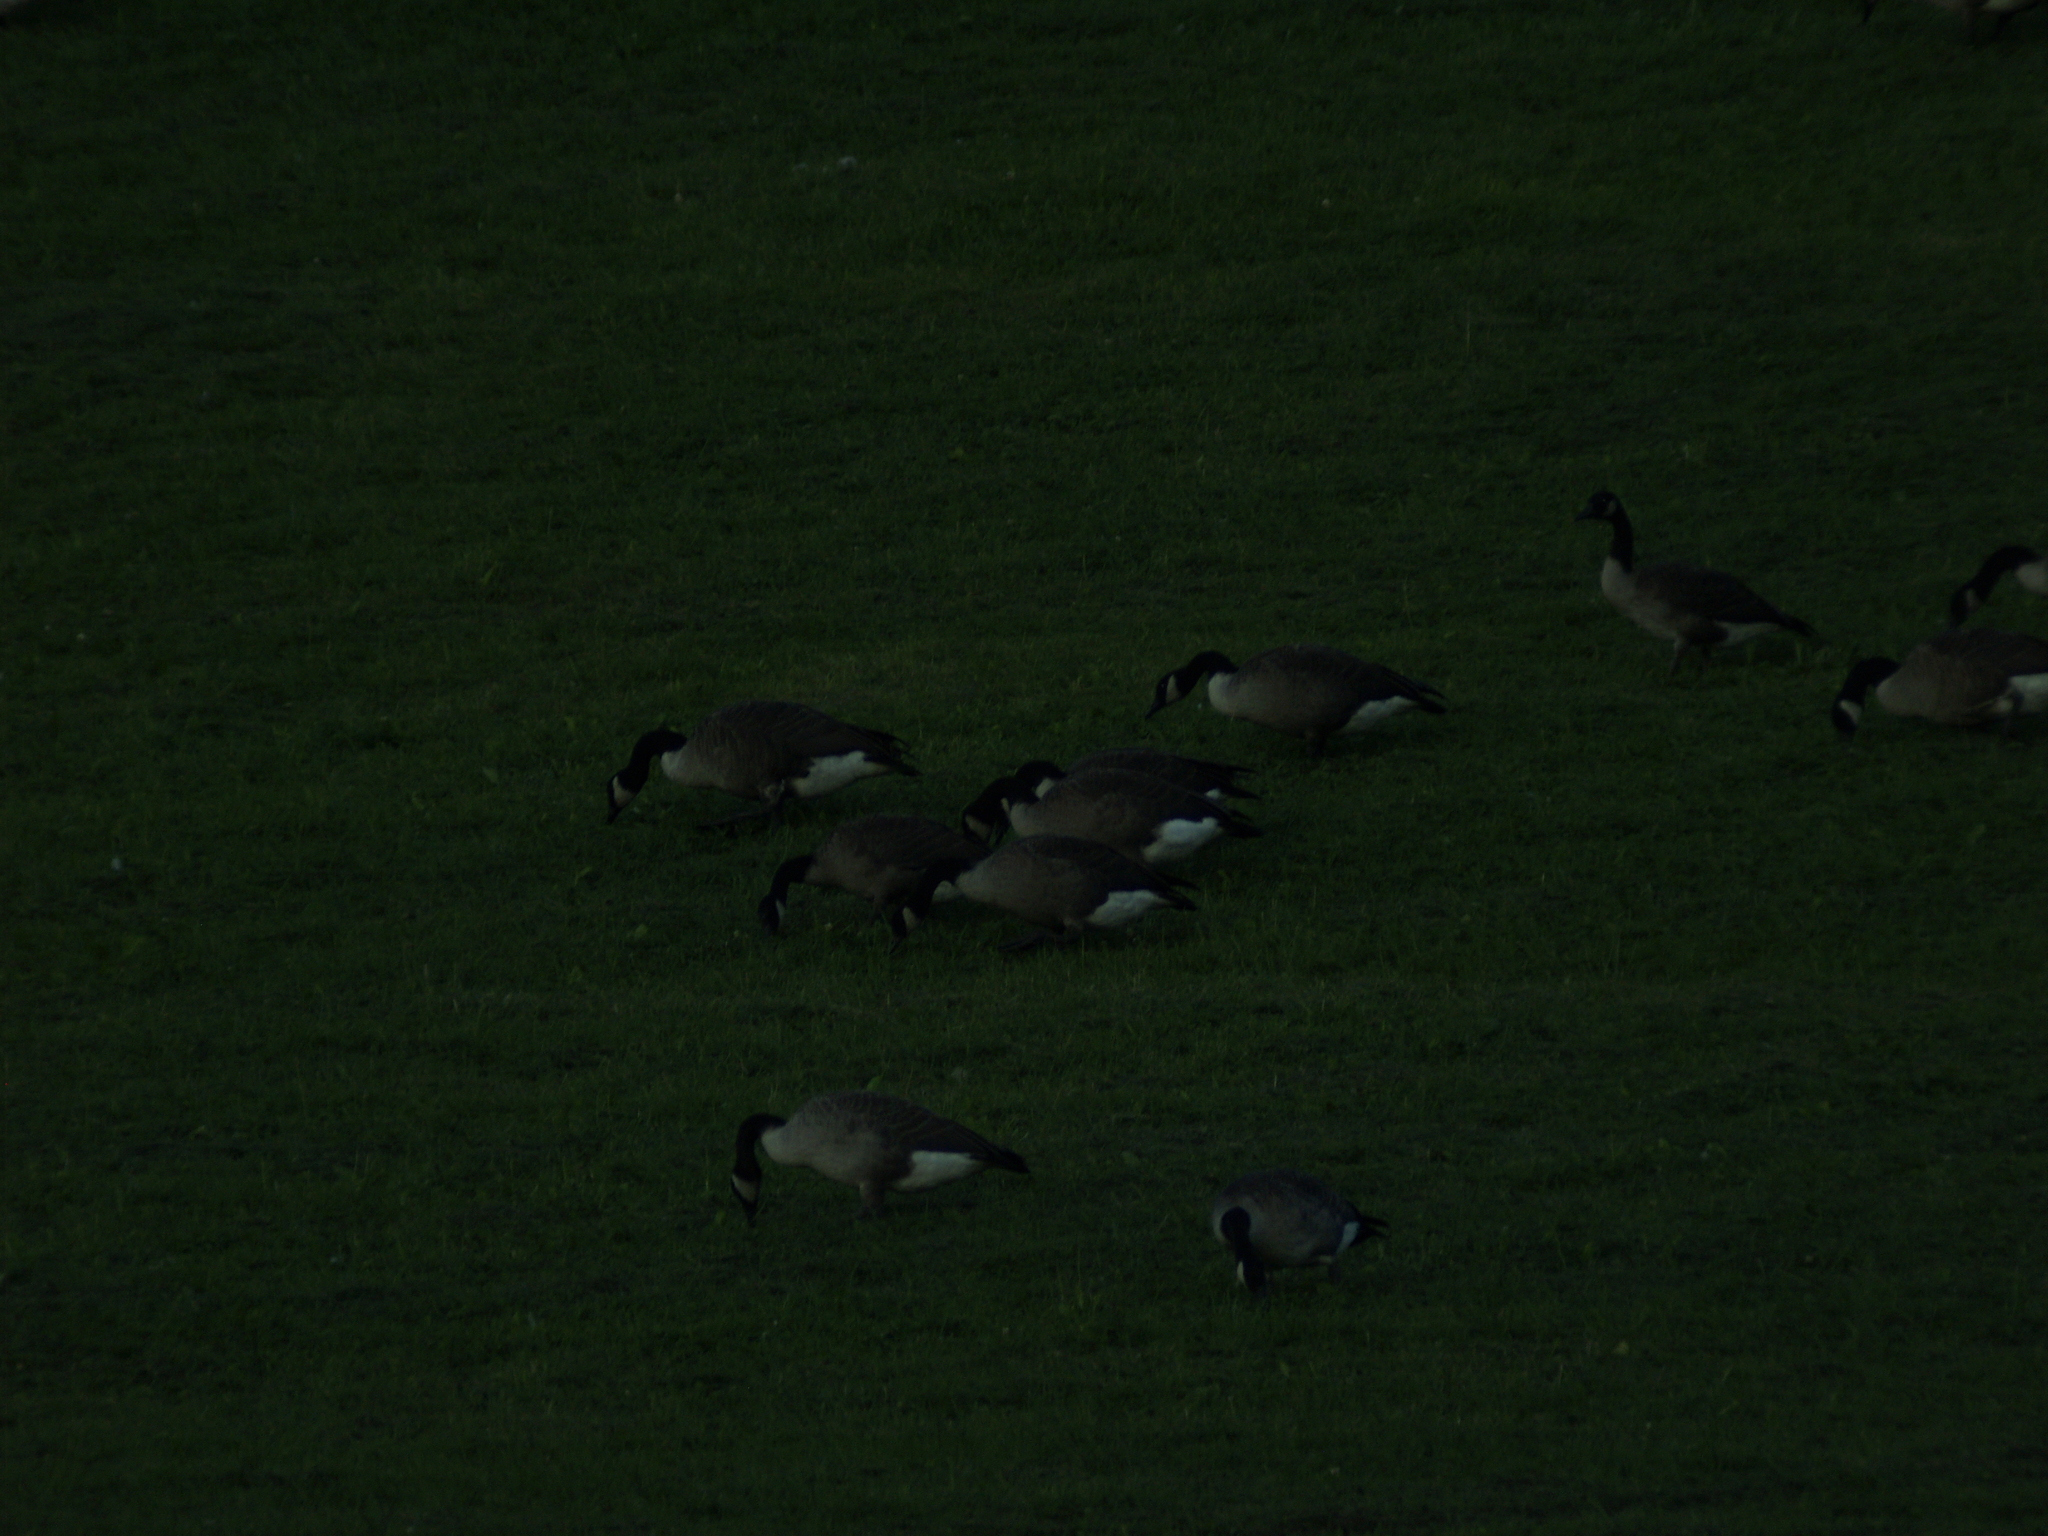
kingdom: Animalia
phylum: Chordata
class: Aves
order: Anseriformes
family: Anatidae
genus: Branta
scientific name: Branta canadensis
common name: Canada goose
